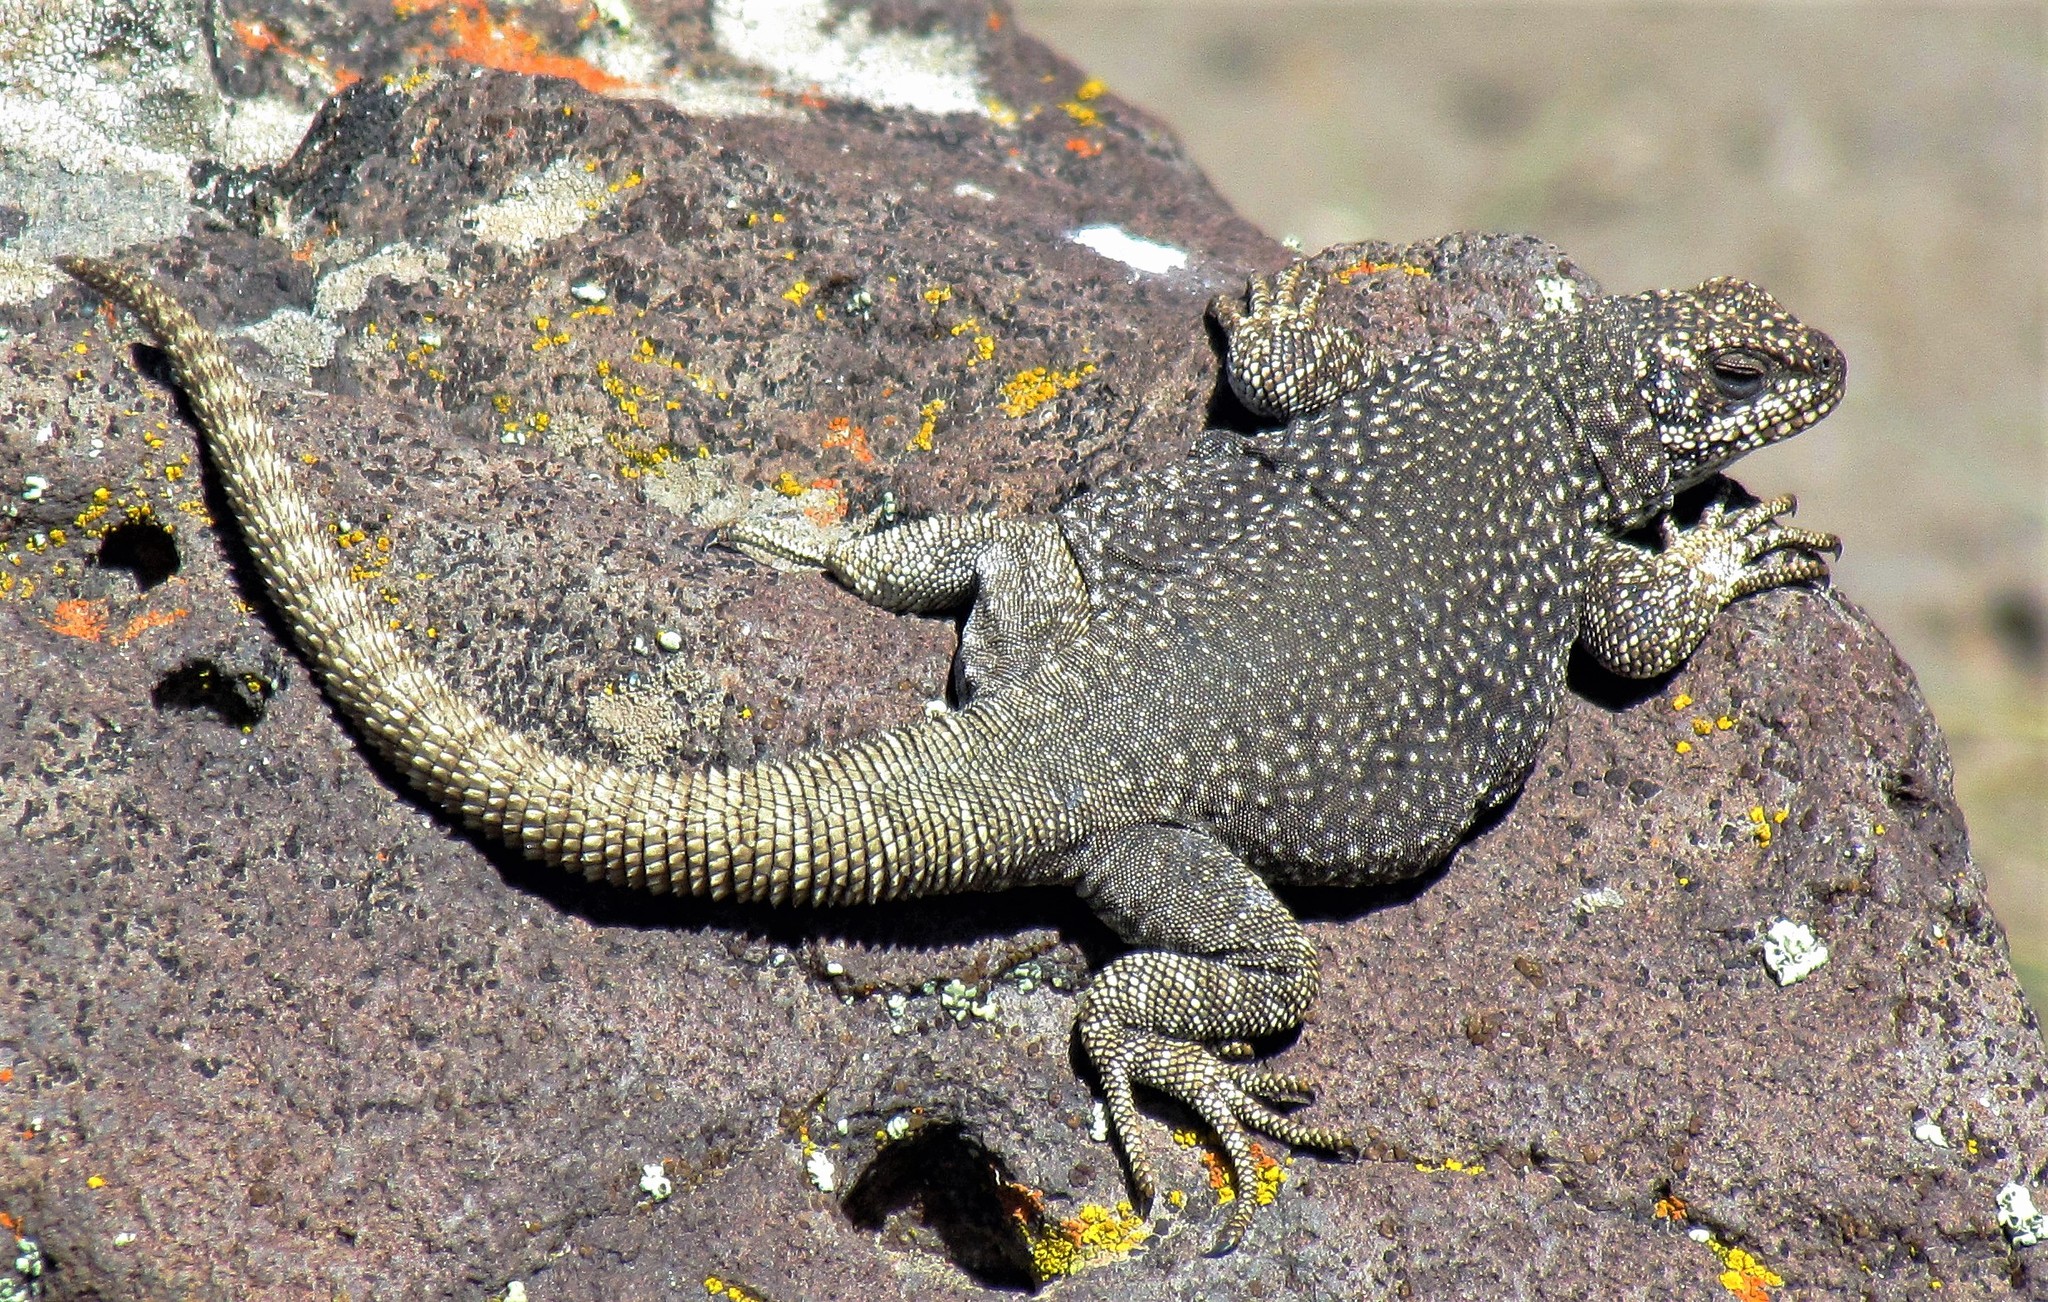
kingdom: Animalia
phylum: Chordata
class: Squamata
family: Liolaemidae
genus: Phymaturus
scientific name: Phymaturus somuncurensis
